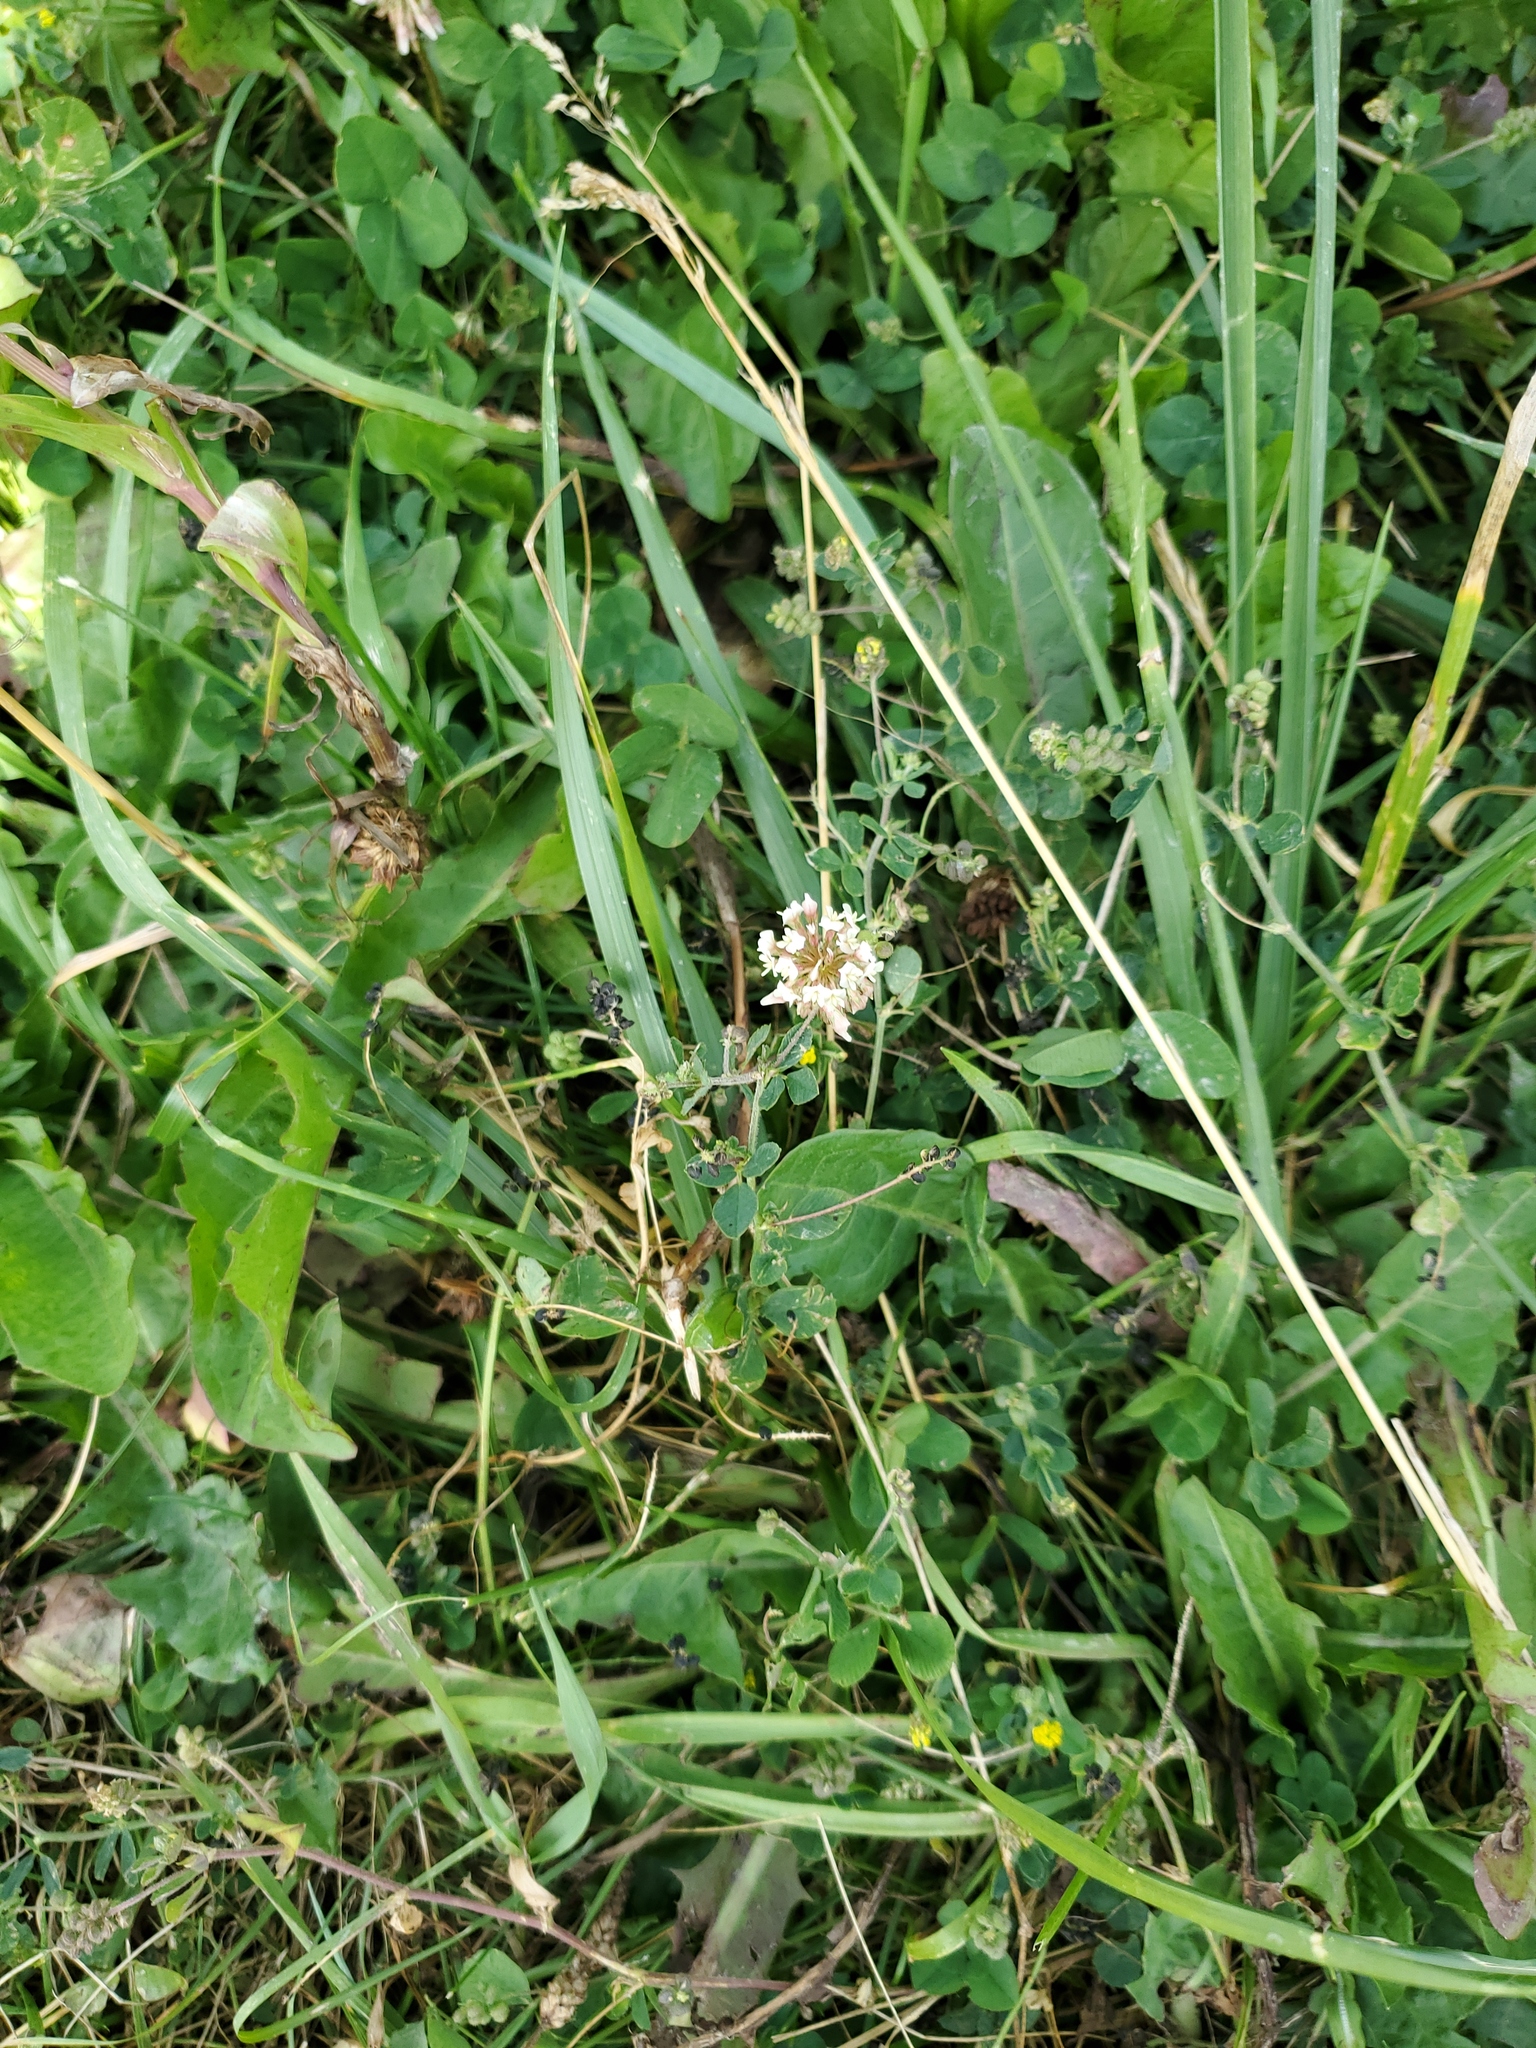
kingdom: Plantae
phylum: Tracheophyta
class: Magnoliopsida
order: Fabales
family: Fabaceae
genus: Trifolium
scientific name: Trifolium repens
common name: White clover
